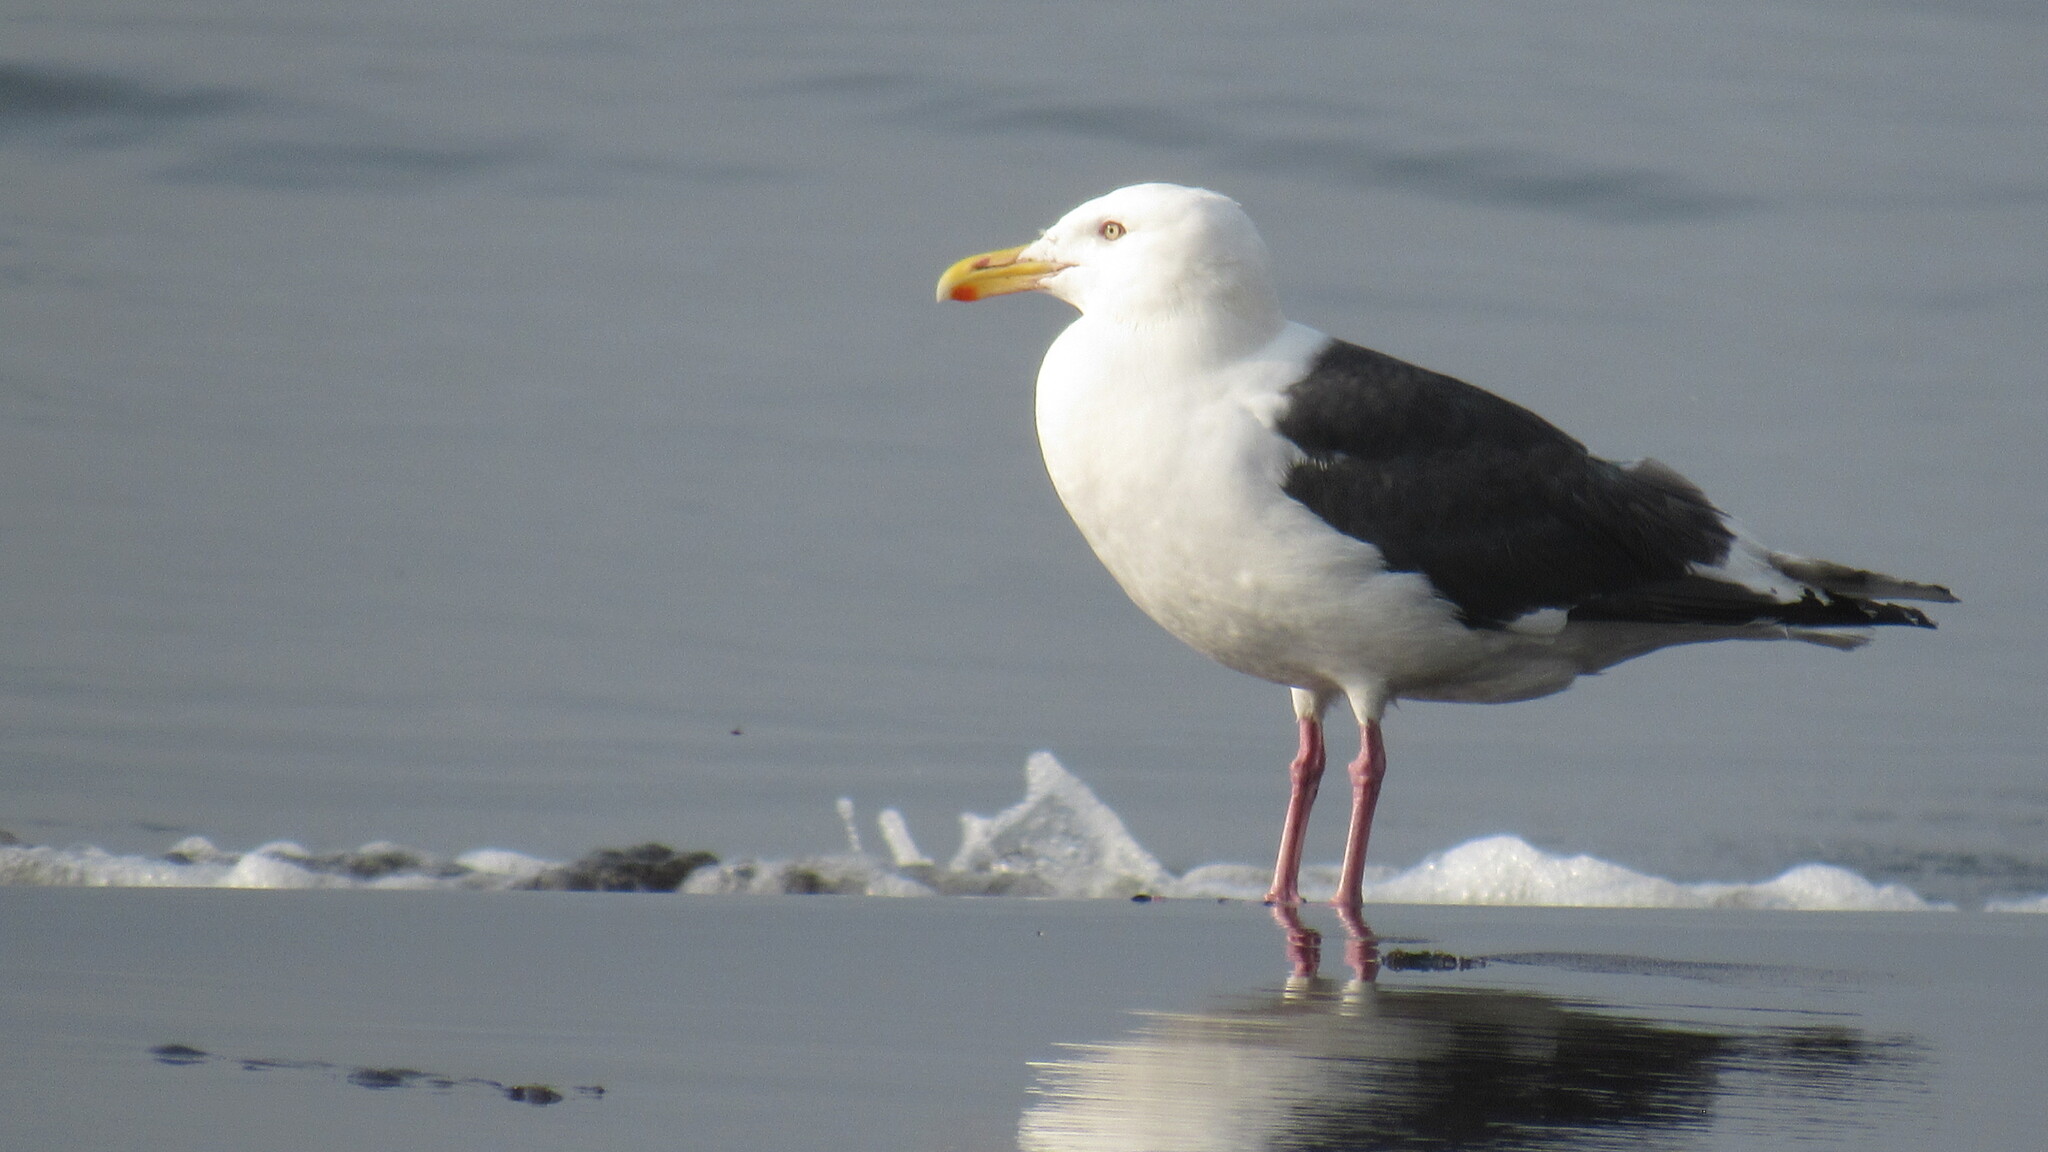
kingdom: Animalia
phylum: Chordata
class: Aves
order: Charadriiformes
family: Laridae
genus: Larus
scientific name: Larus schistisagus
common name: Slaty-backed gull
